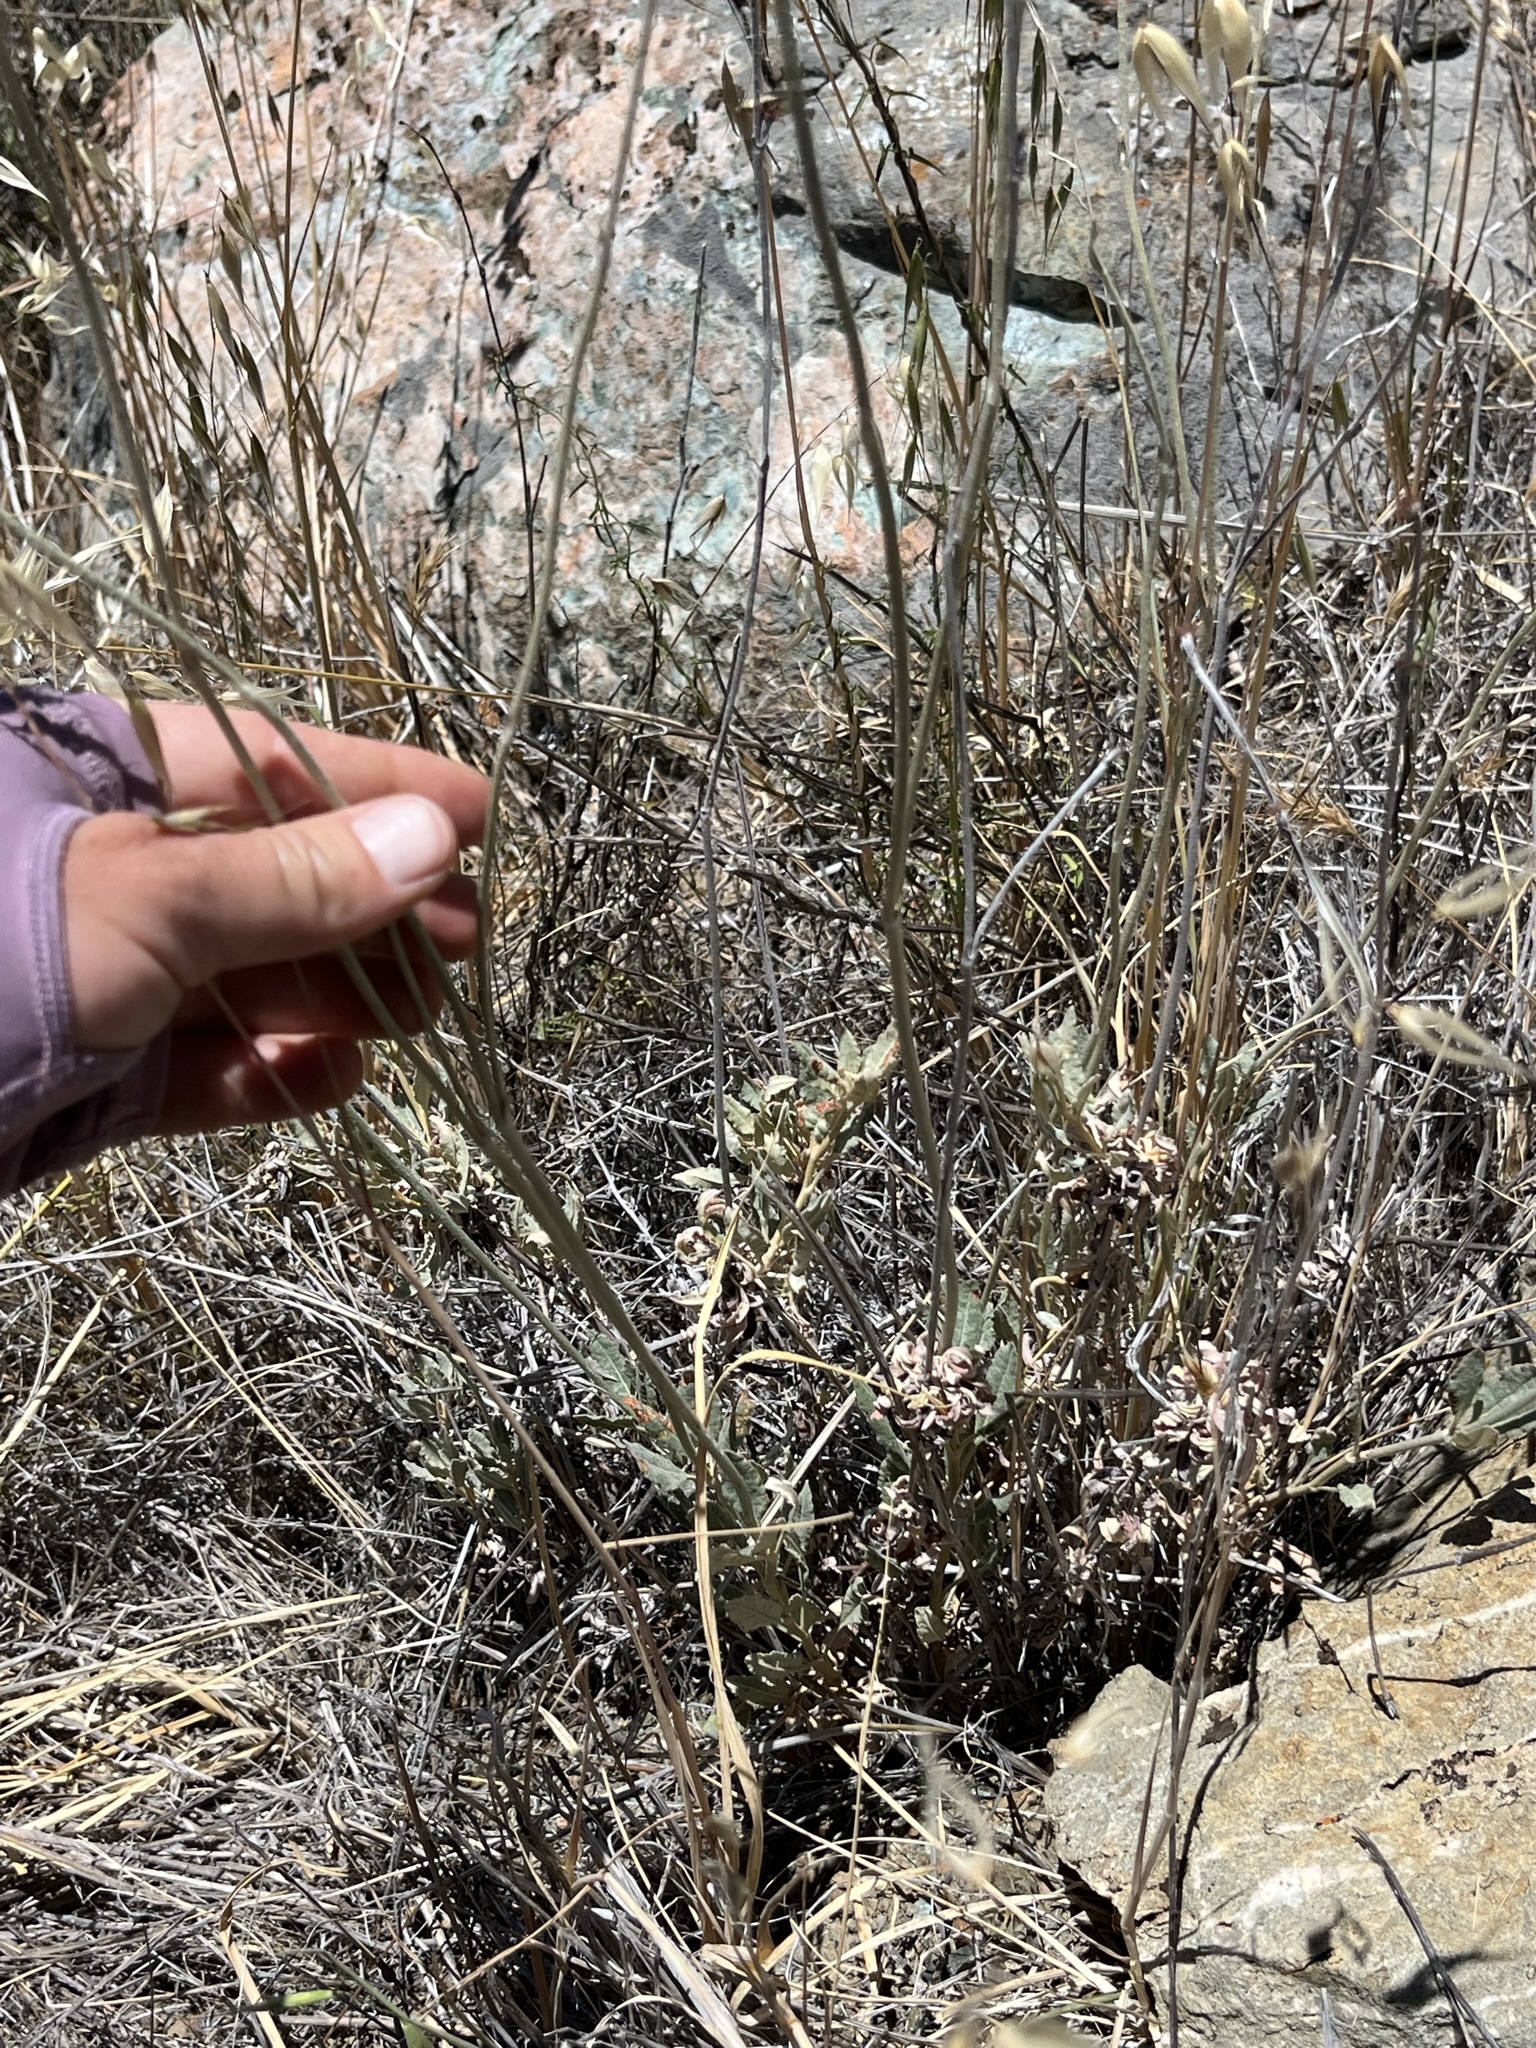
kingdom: Plantae
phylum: Tracheophyta
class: Magnoliopsida
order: Caryophyllales
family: Polygonaceae
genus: Eriogonum
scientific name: Eriogonum elongatum
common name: Long-stem wild buckwheat
